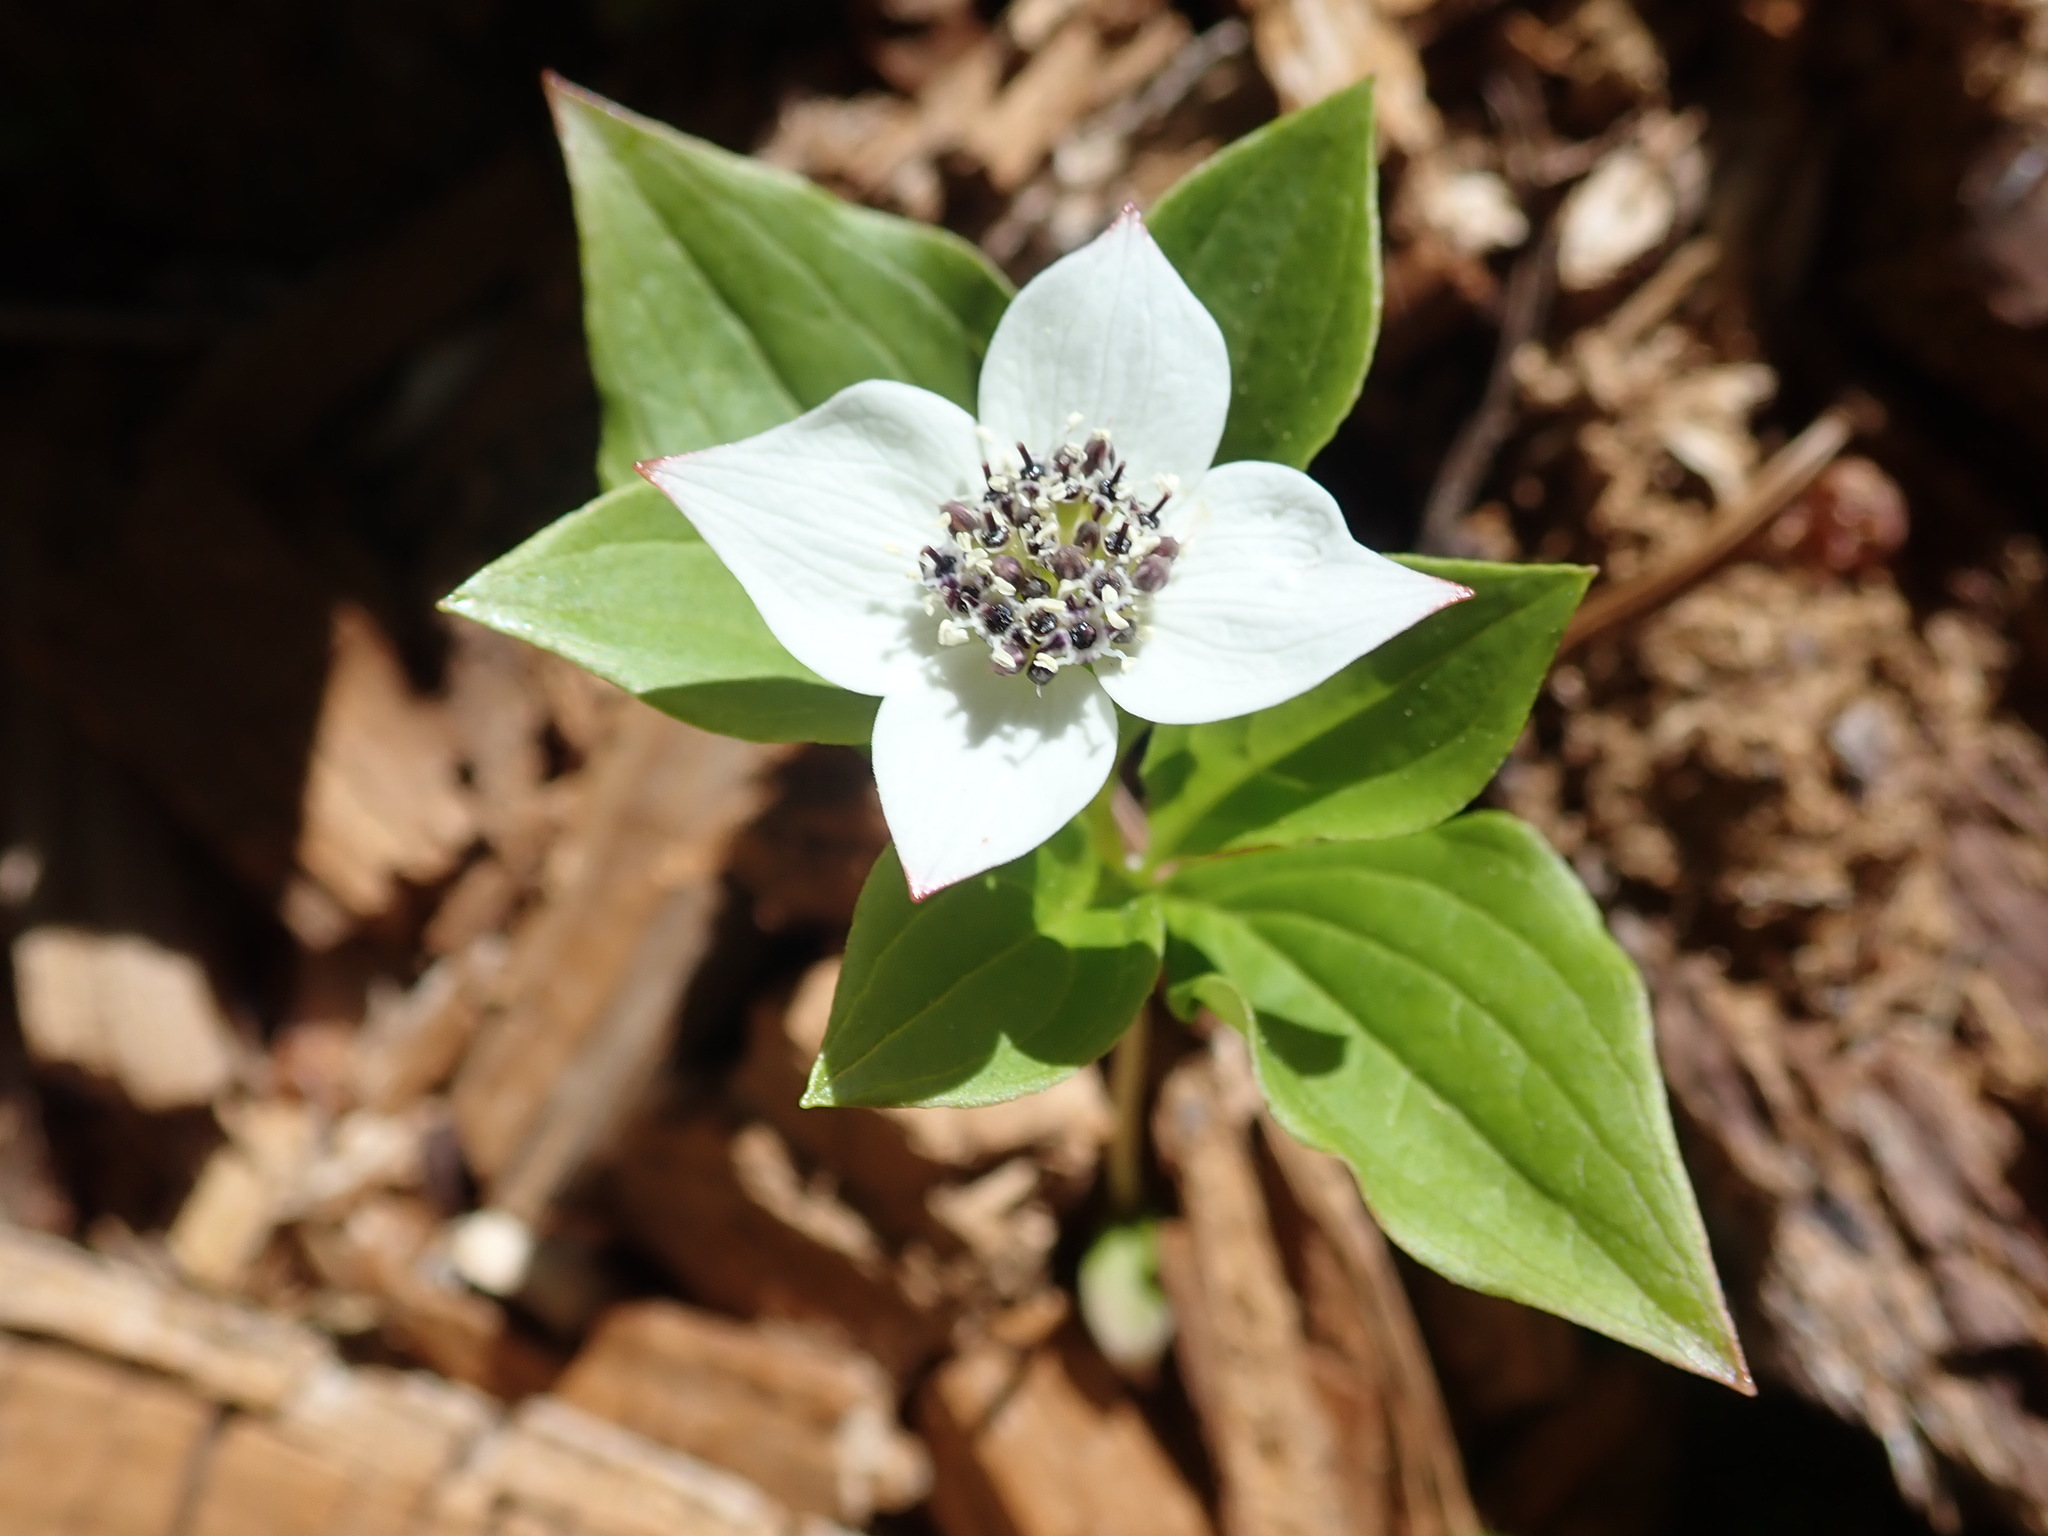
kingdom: Plantae
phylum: Tracheophyta
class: Magnoliopsida
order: Cornales
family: Cornaceae
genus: Cornus
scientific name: Cornus unalaschkensis
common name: Alaska bunchberry
